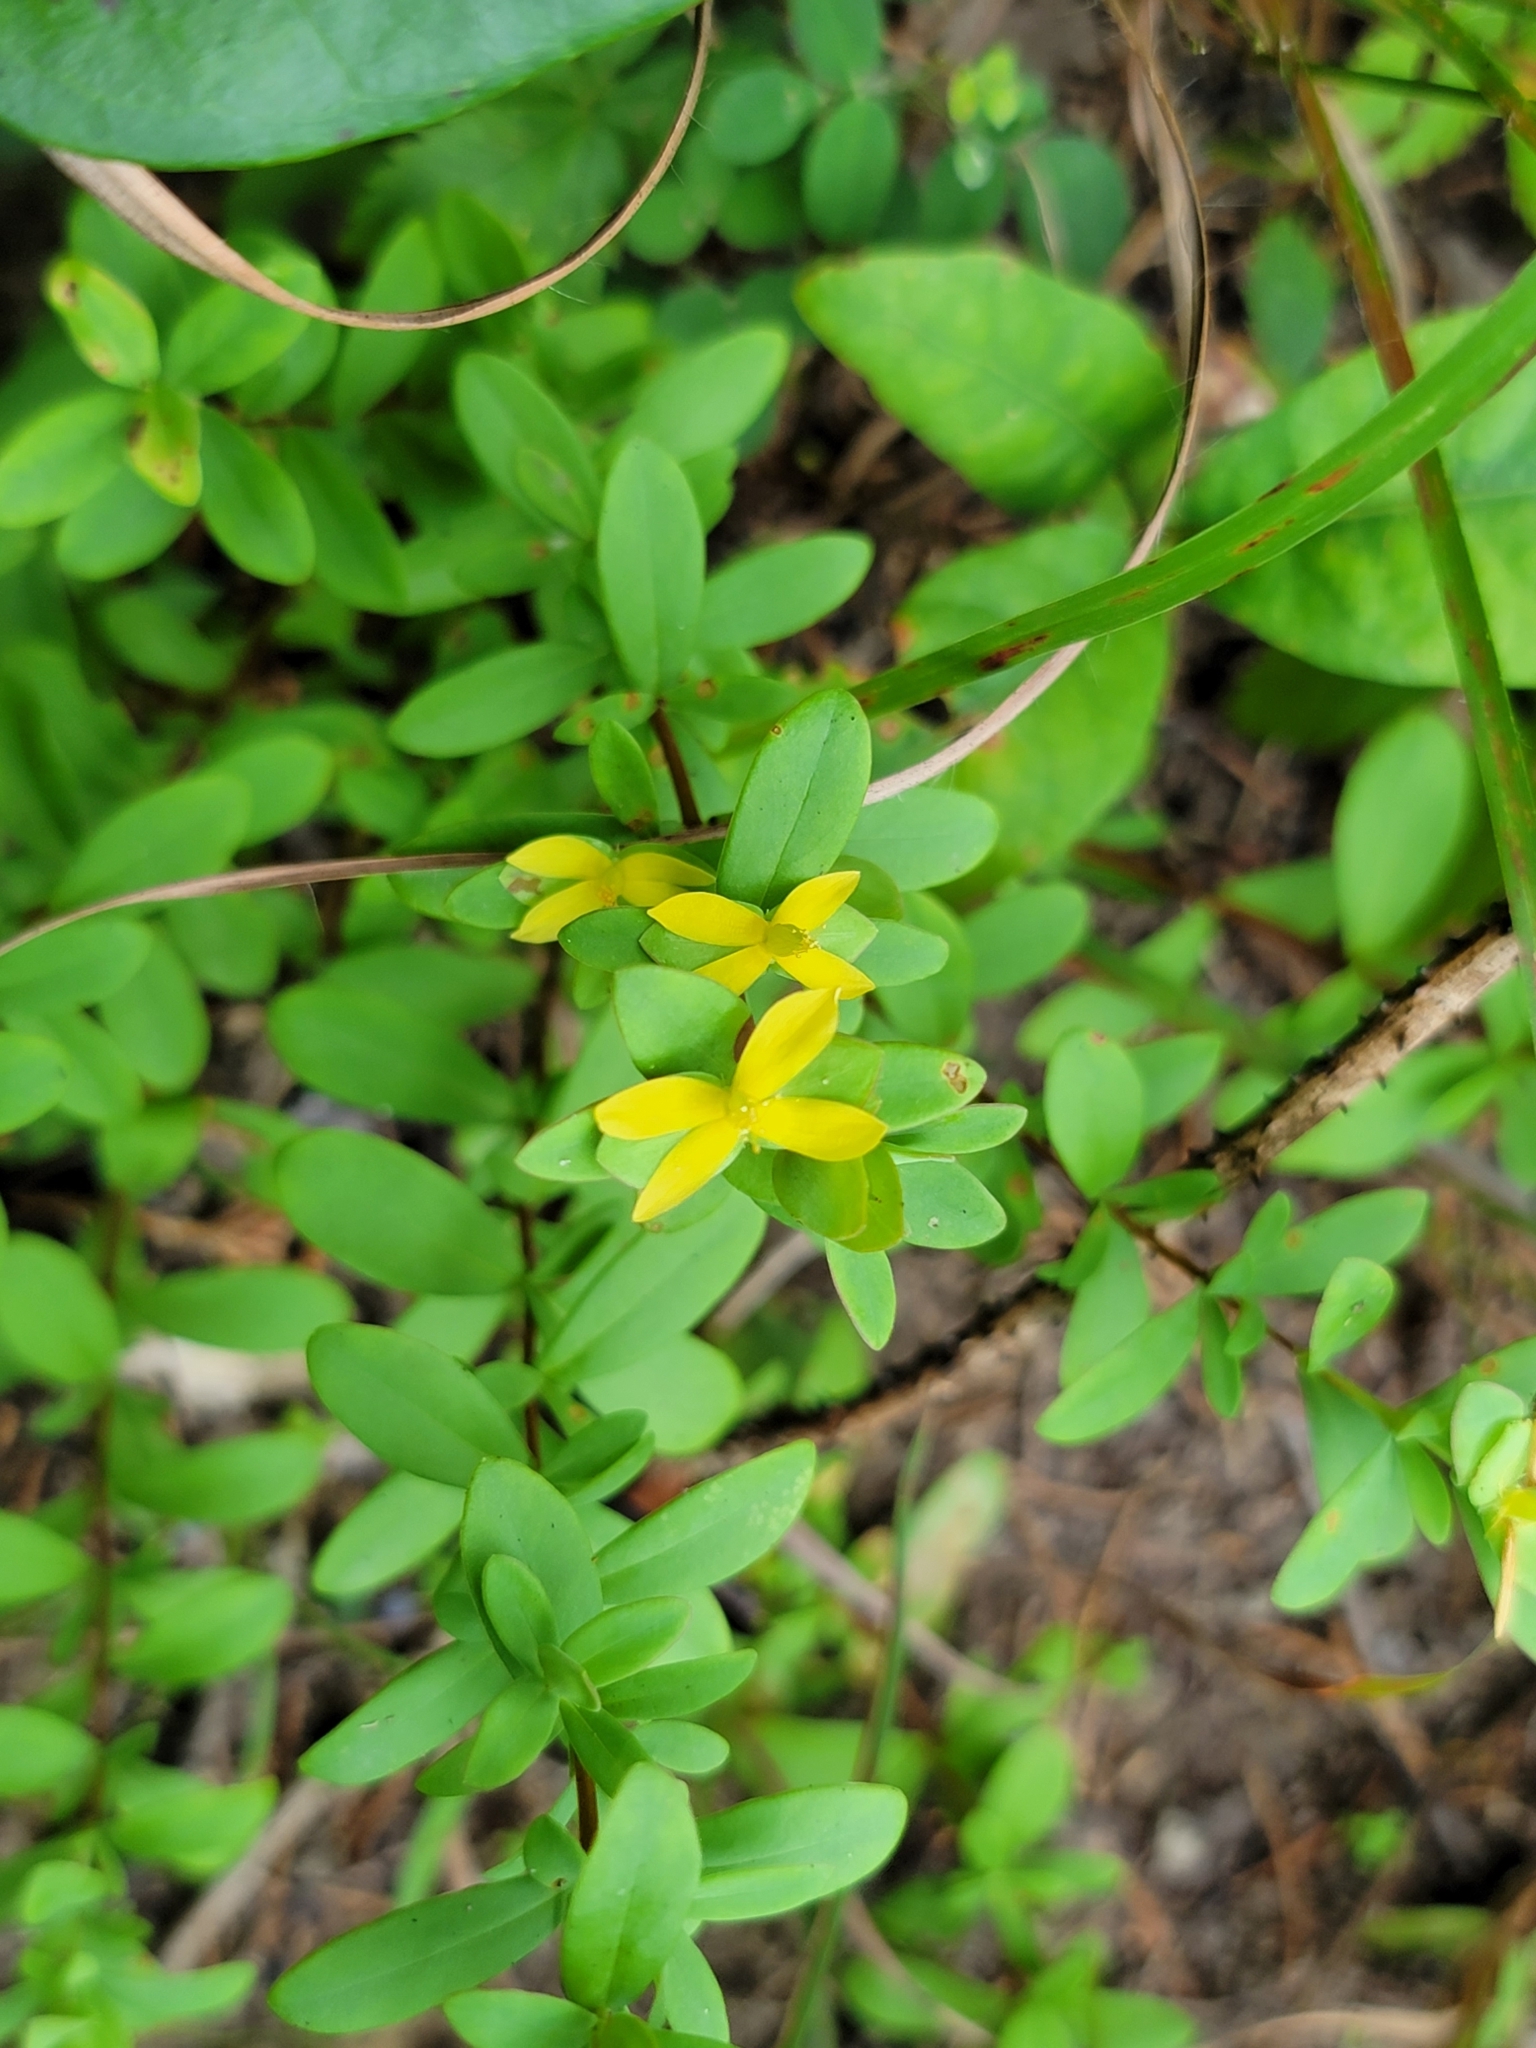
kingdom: Plantae
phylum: Tracheophyta
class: Magnoliopsida
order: Malpighiales
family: Hypericaceae
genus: Hypericum
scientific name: Hypericum hypericoides
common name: St. andrew's cross
